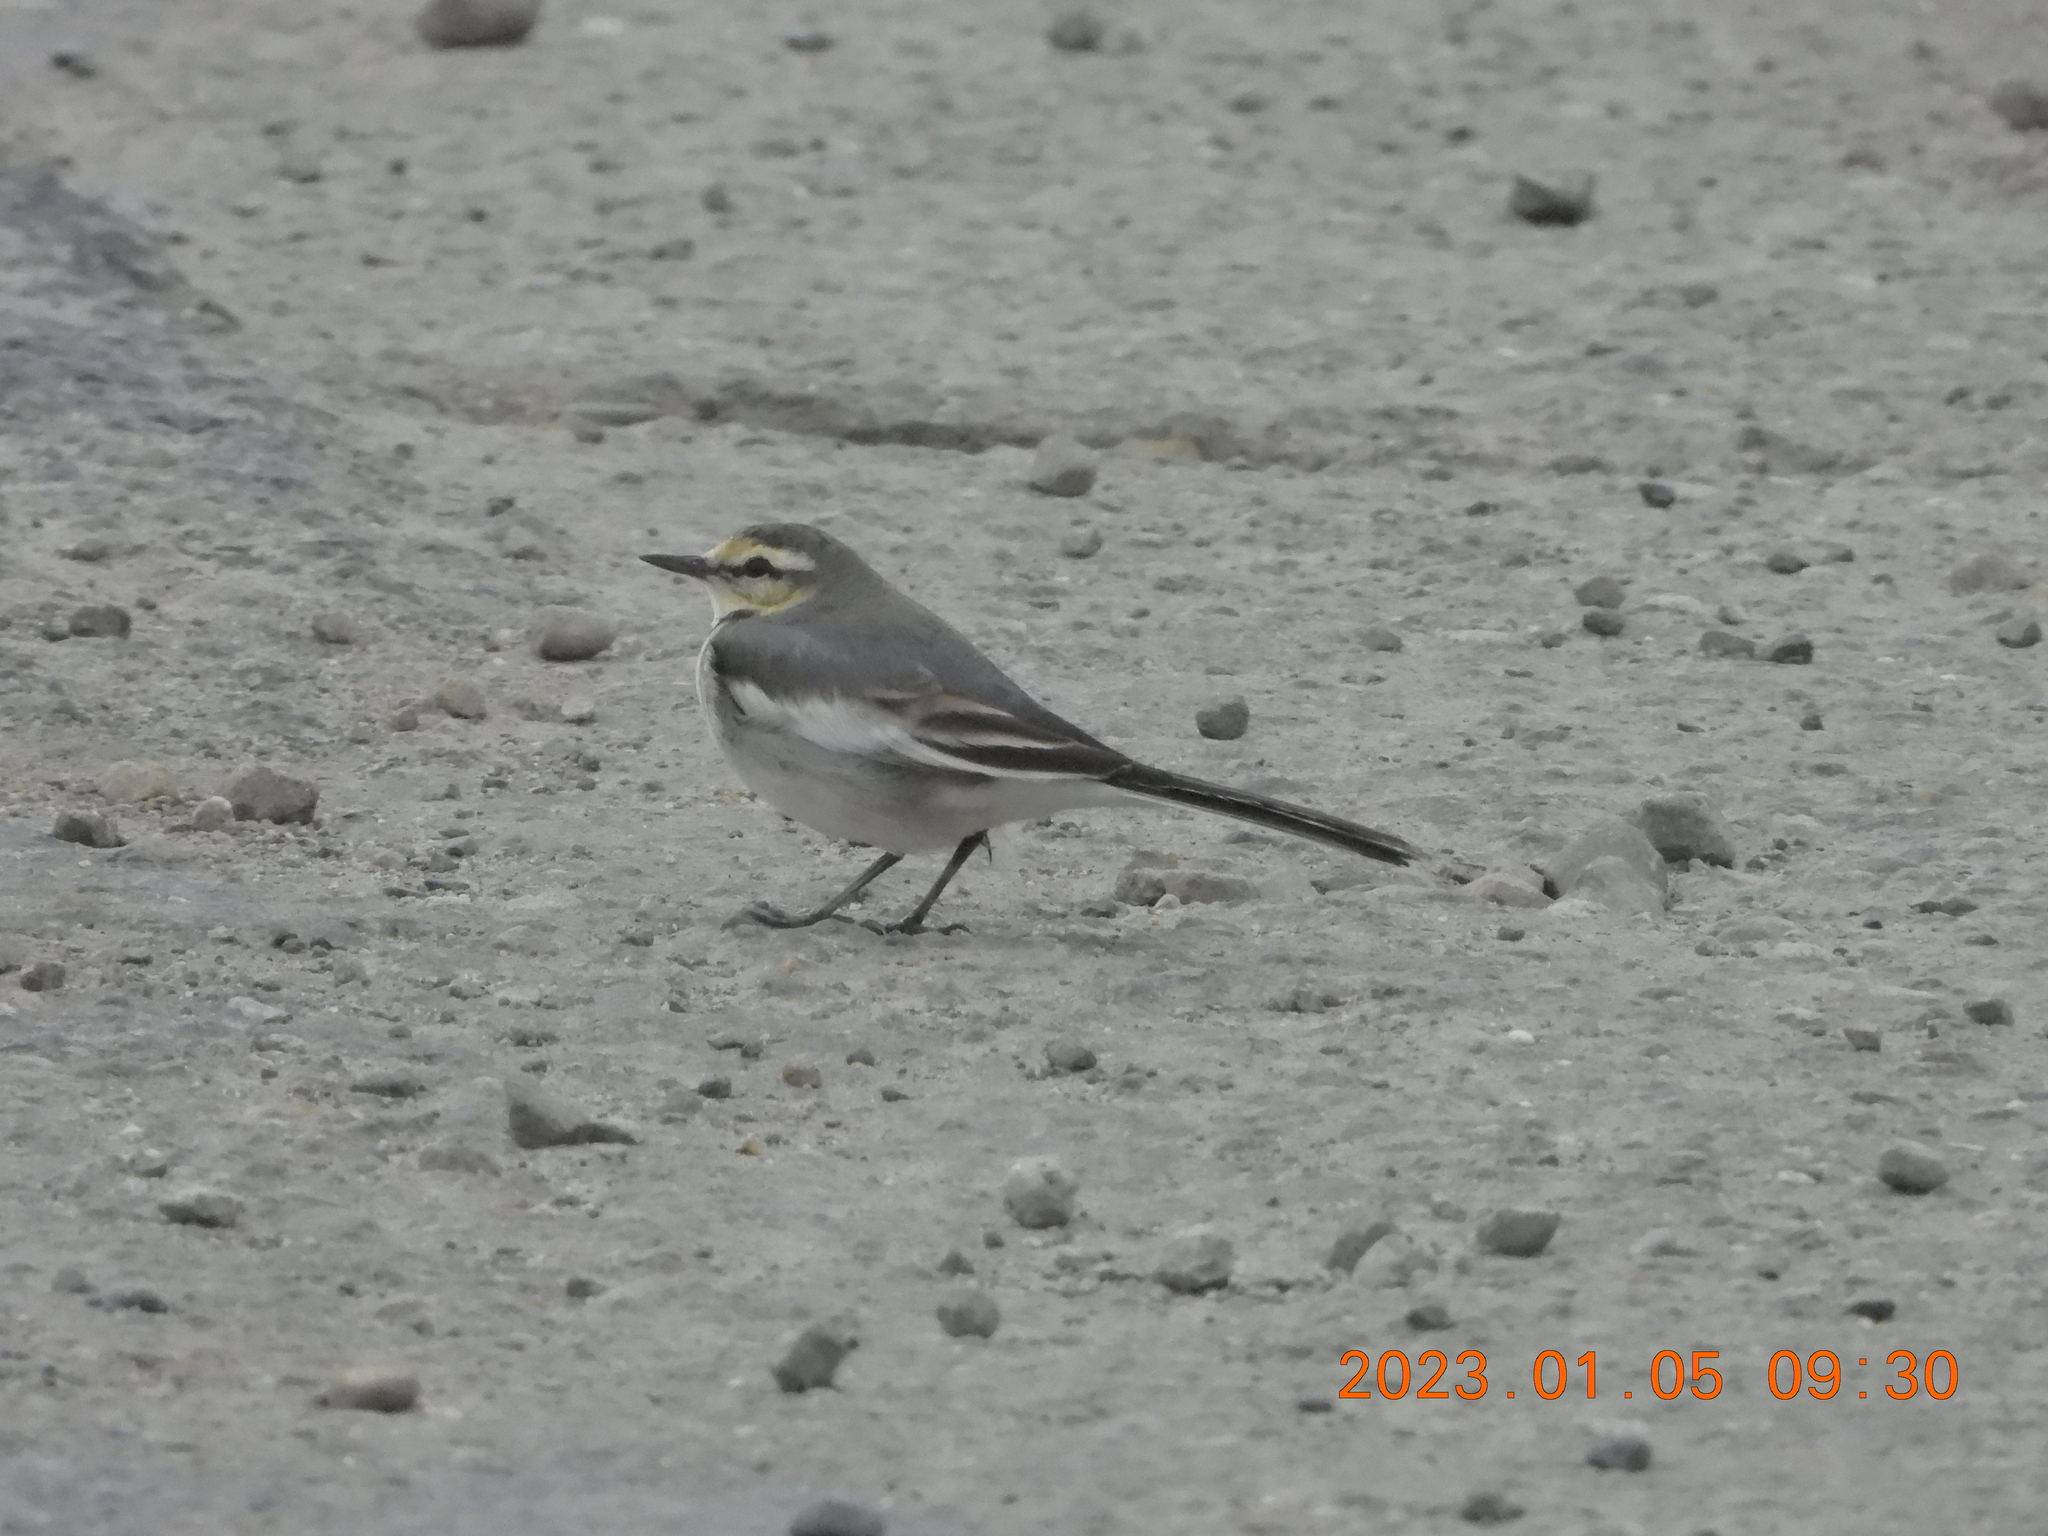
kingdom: Animalia
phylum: Chordata
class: Aves
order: Passeriformes
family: Motacillidae
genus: Motacilla
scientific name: Motacilla alba
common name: White wagtail
